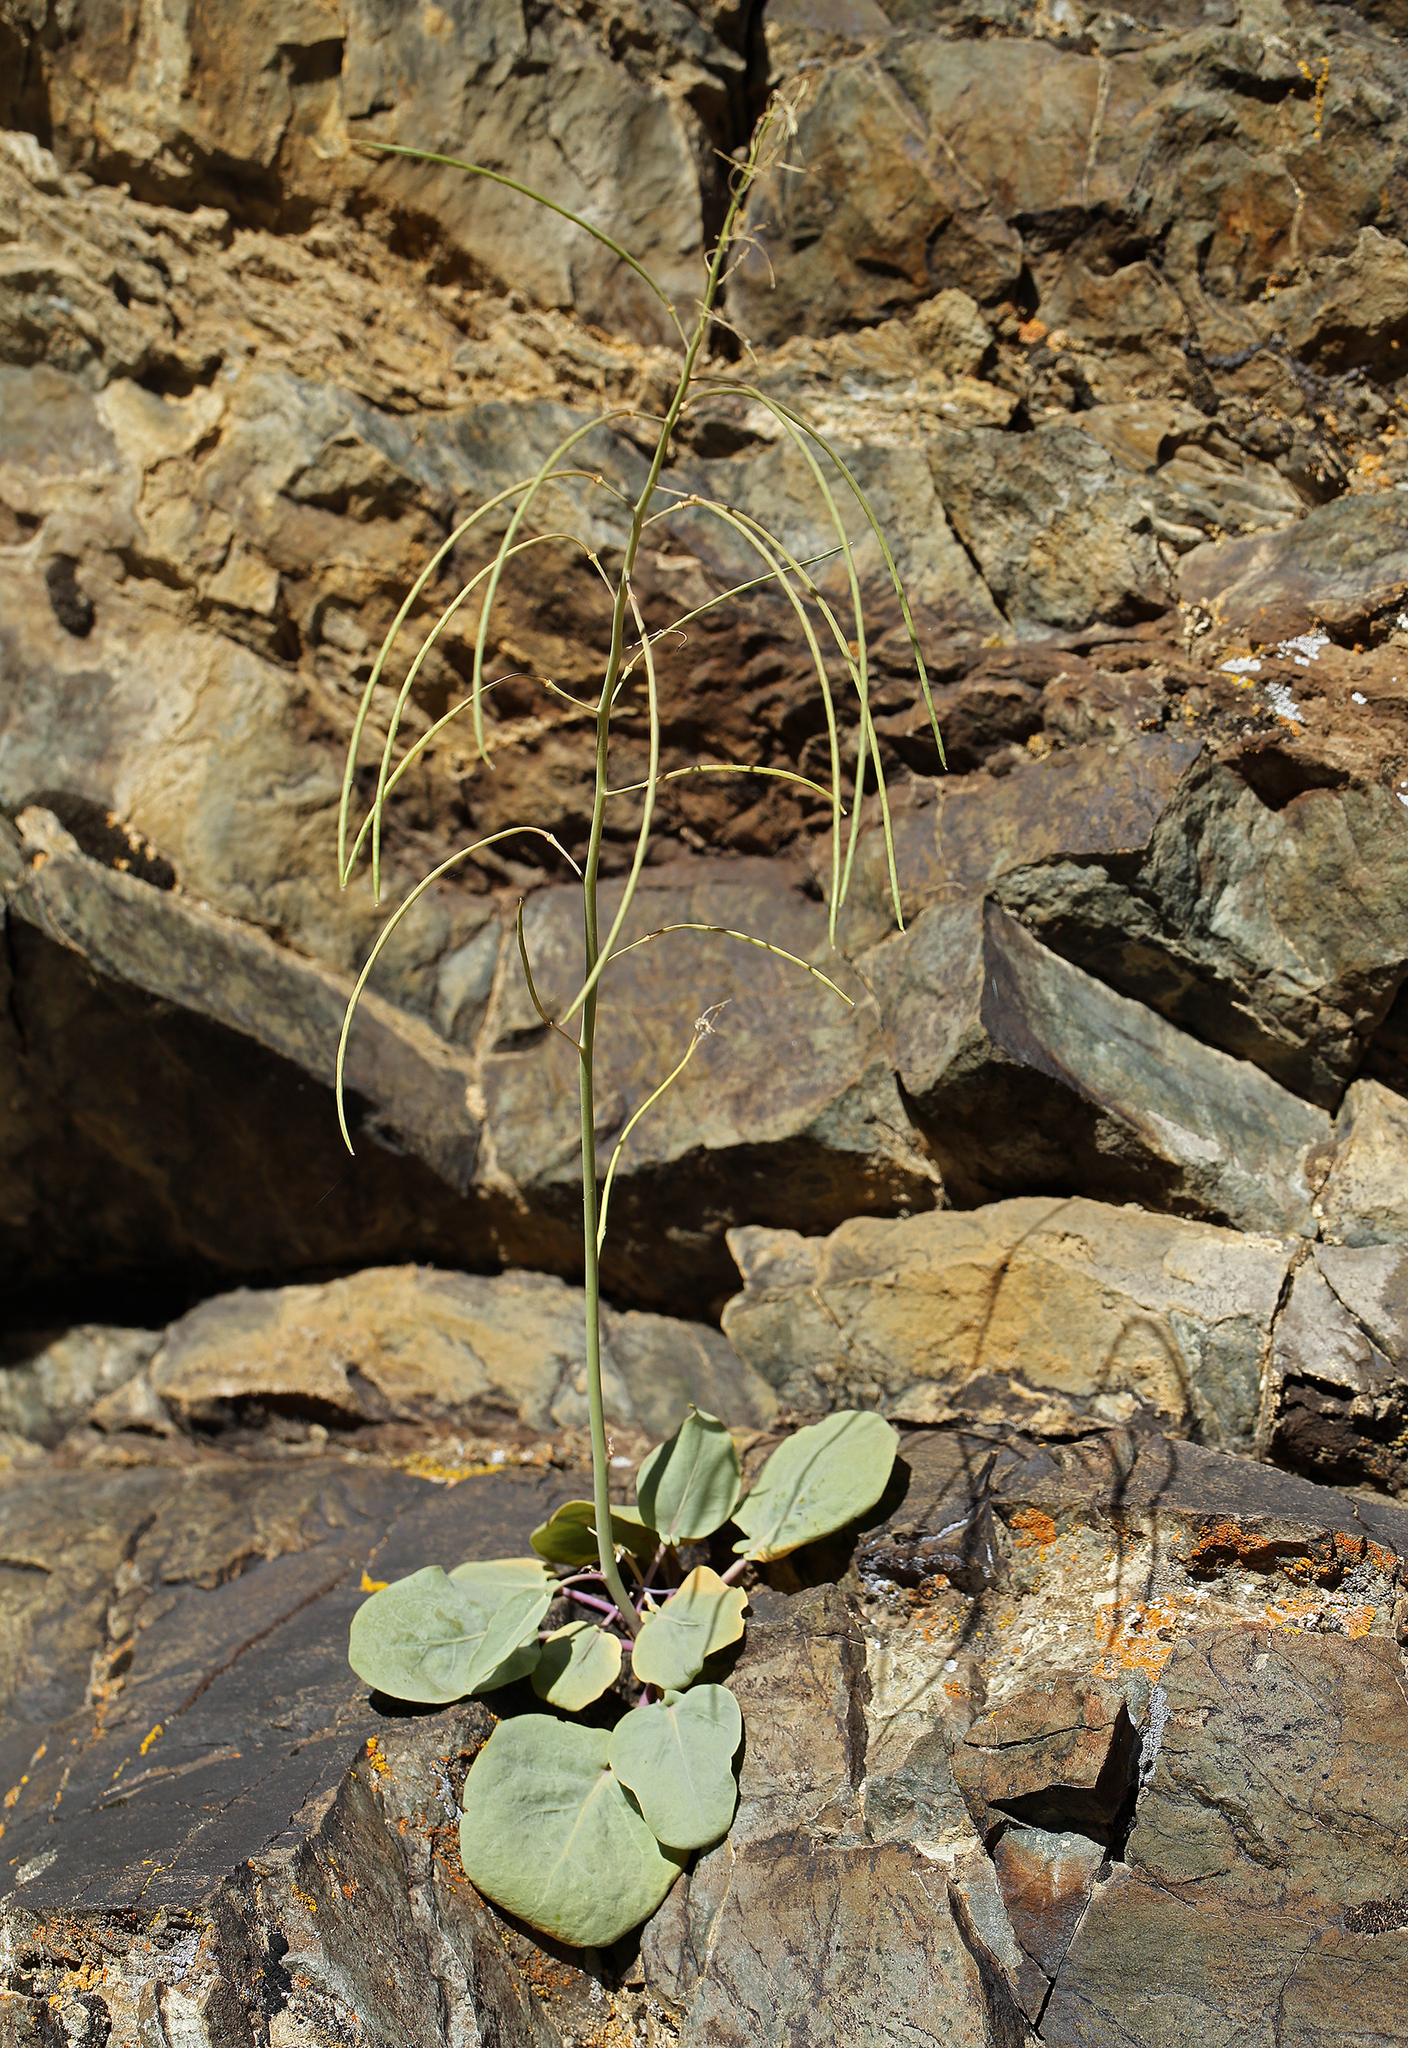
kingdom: Plantae
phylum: Tracheophyta
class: Magnoliopsida
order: Brassicales
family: Brassicaceae
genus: Streptanthus
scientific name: Streptanthus glaucus
